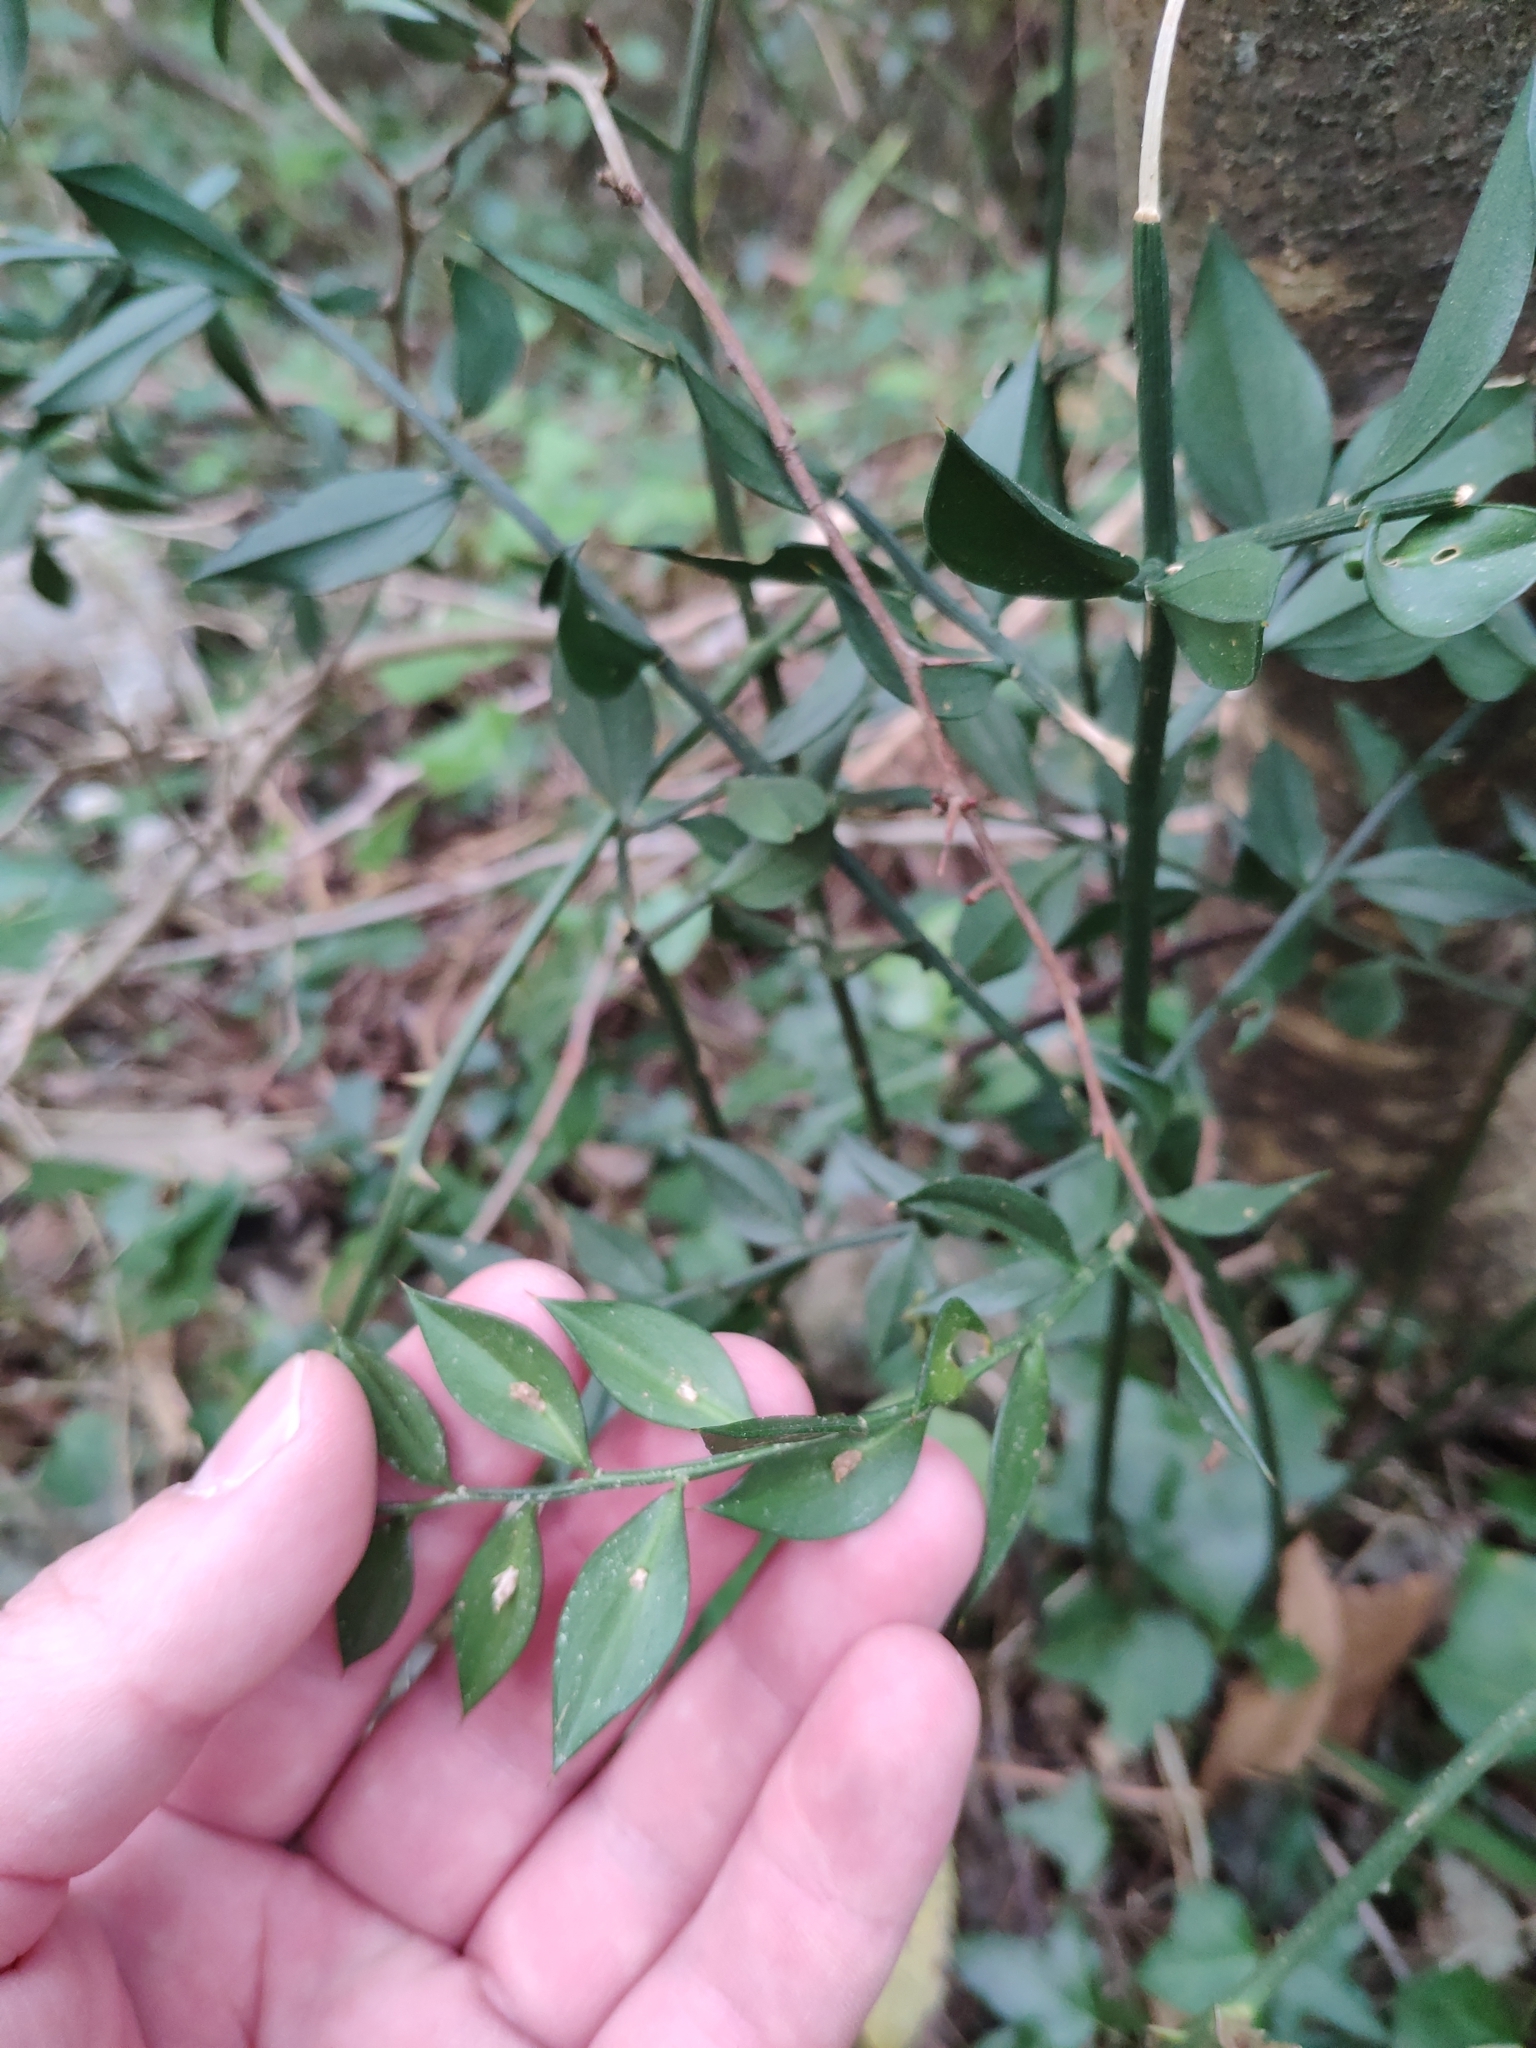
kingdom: Plantae
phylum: Tracheophyta
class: Liliopsida
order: Asparagales
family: Asparagaceae
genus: Ruscus
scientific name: Ruscus aculeatus
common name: Butcher's-broom
